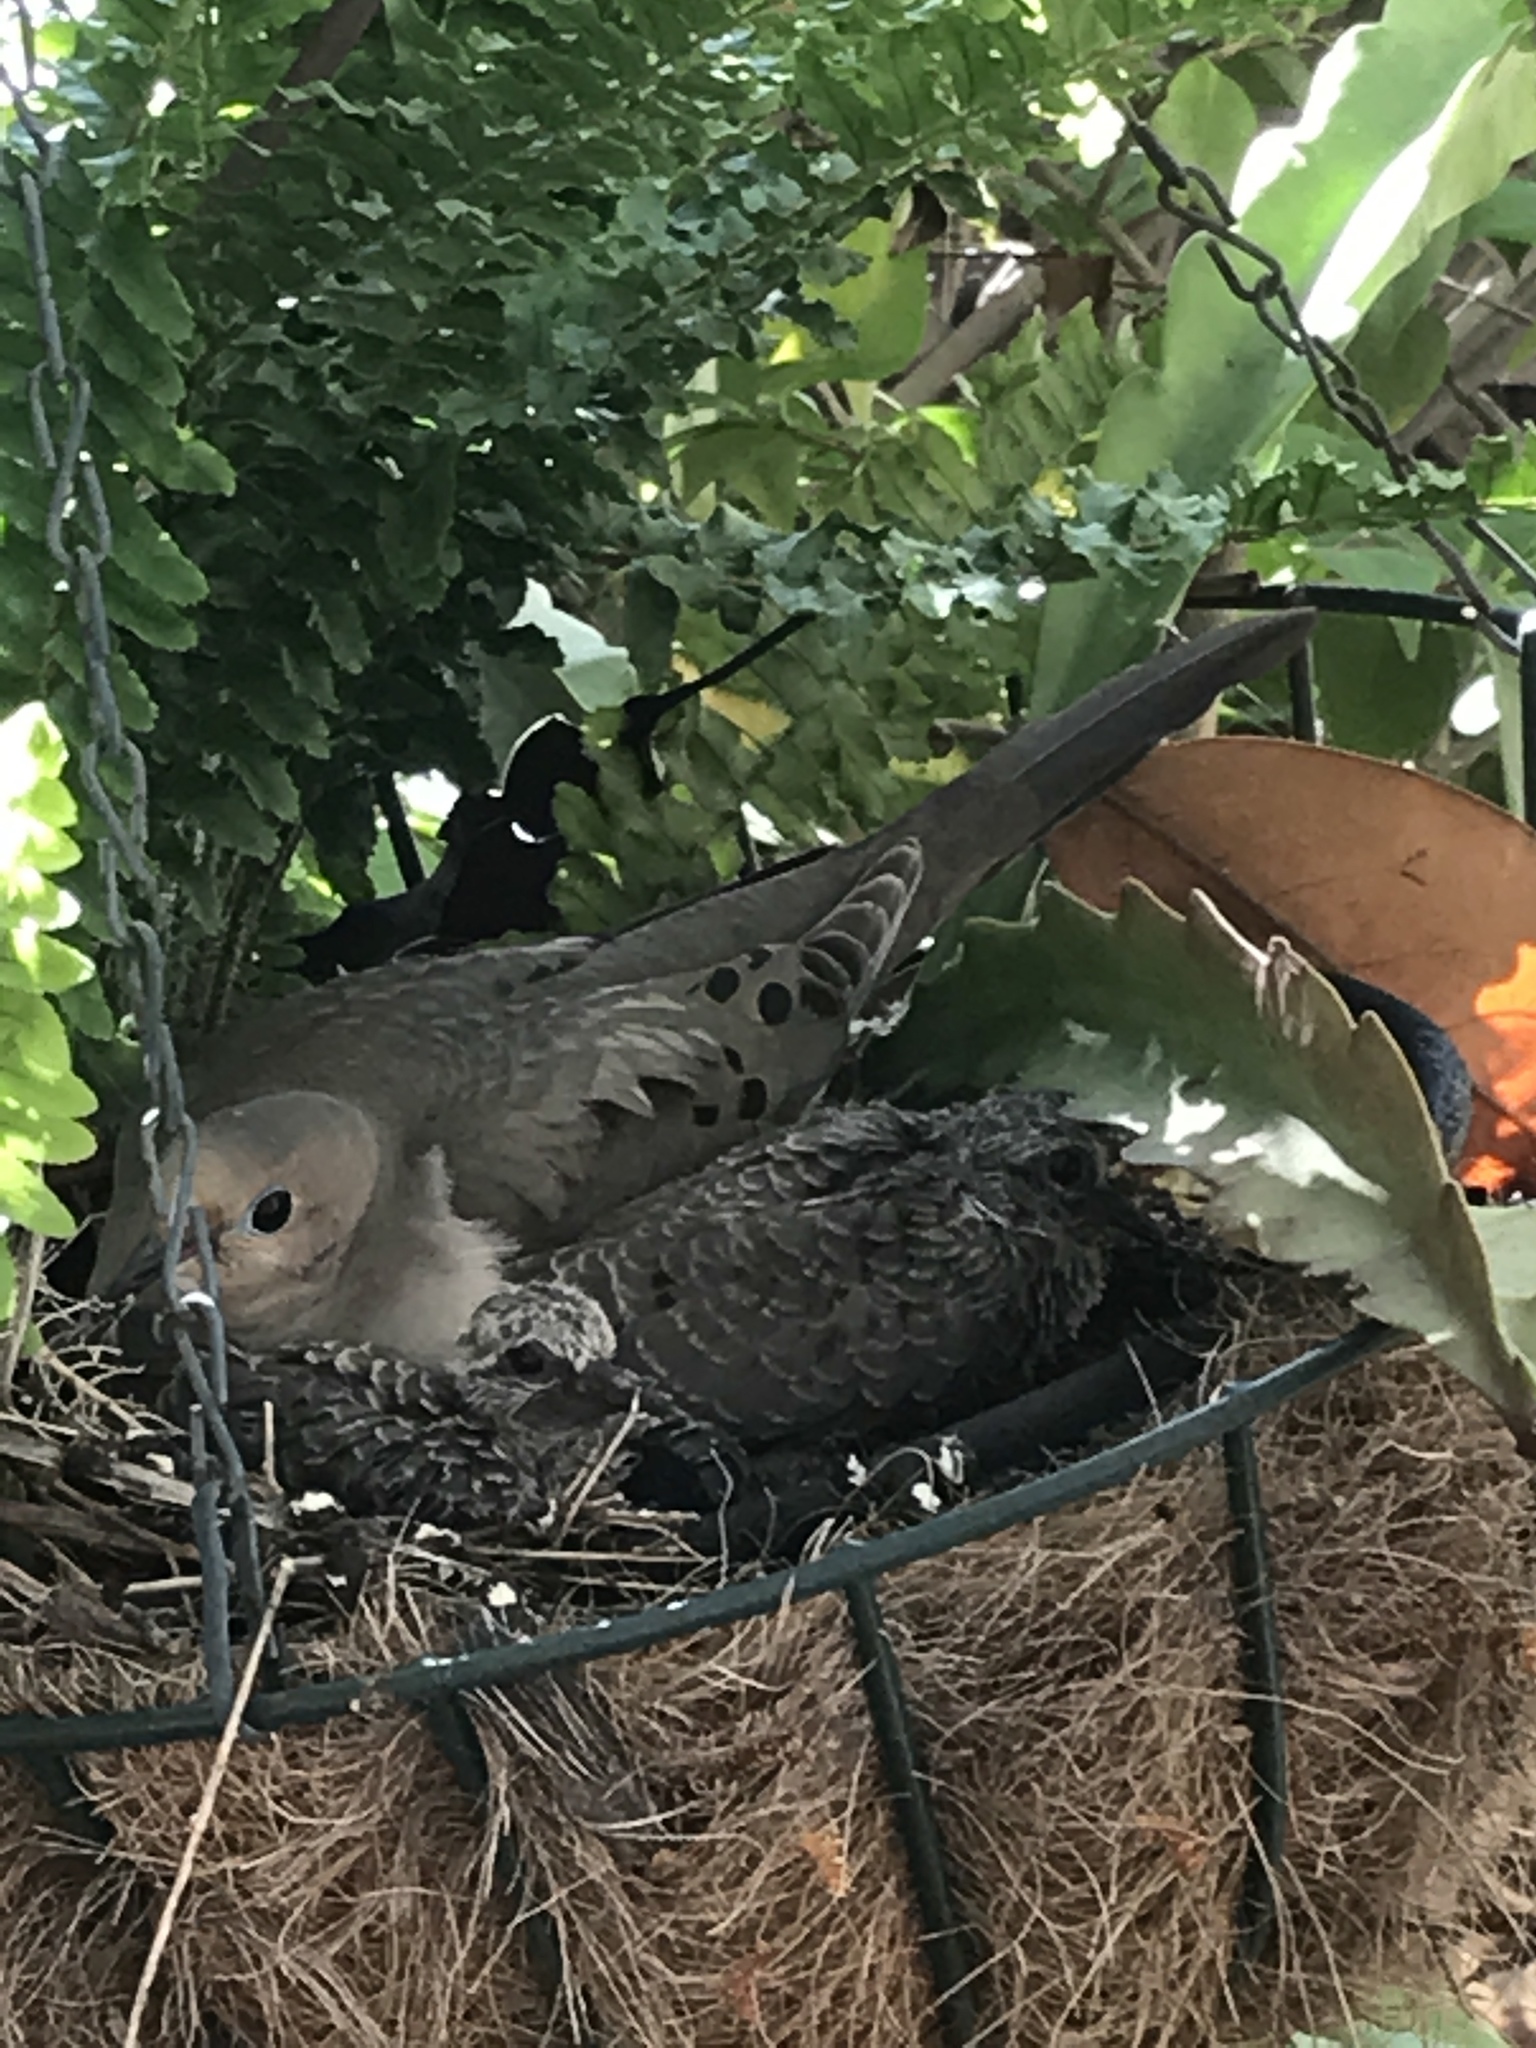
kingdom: Animalia
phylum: Chordata
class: Aves
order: Columbiformes
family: Columbidae
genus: Zenaida
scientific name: Zenaida macroura
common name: Mourning dove
